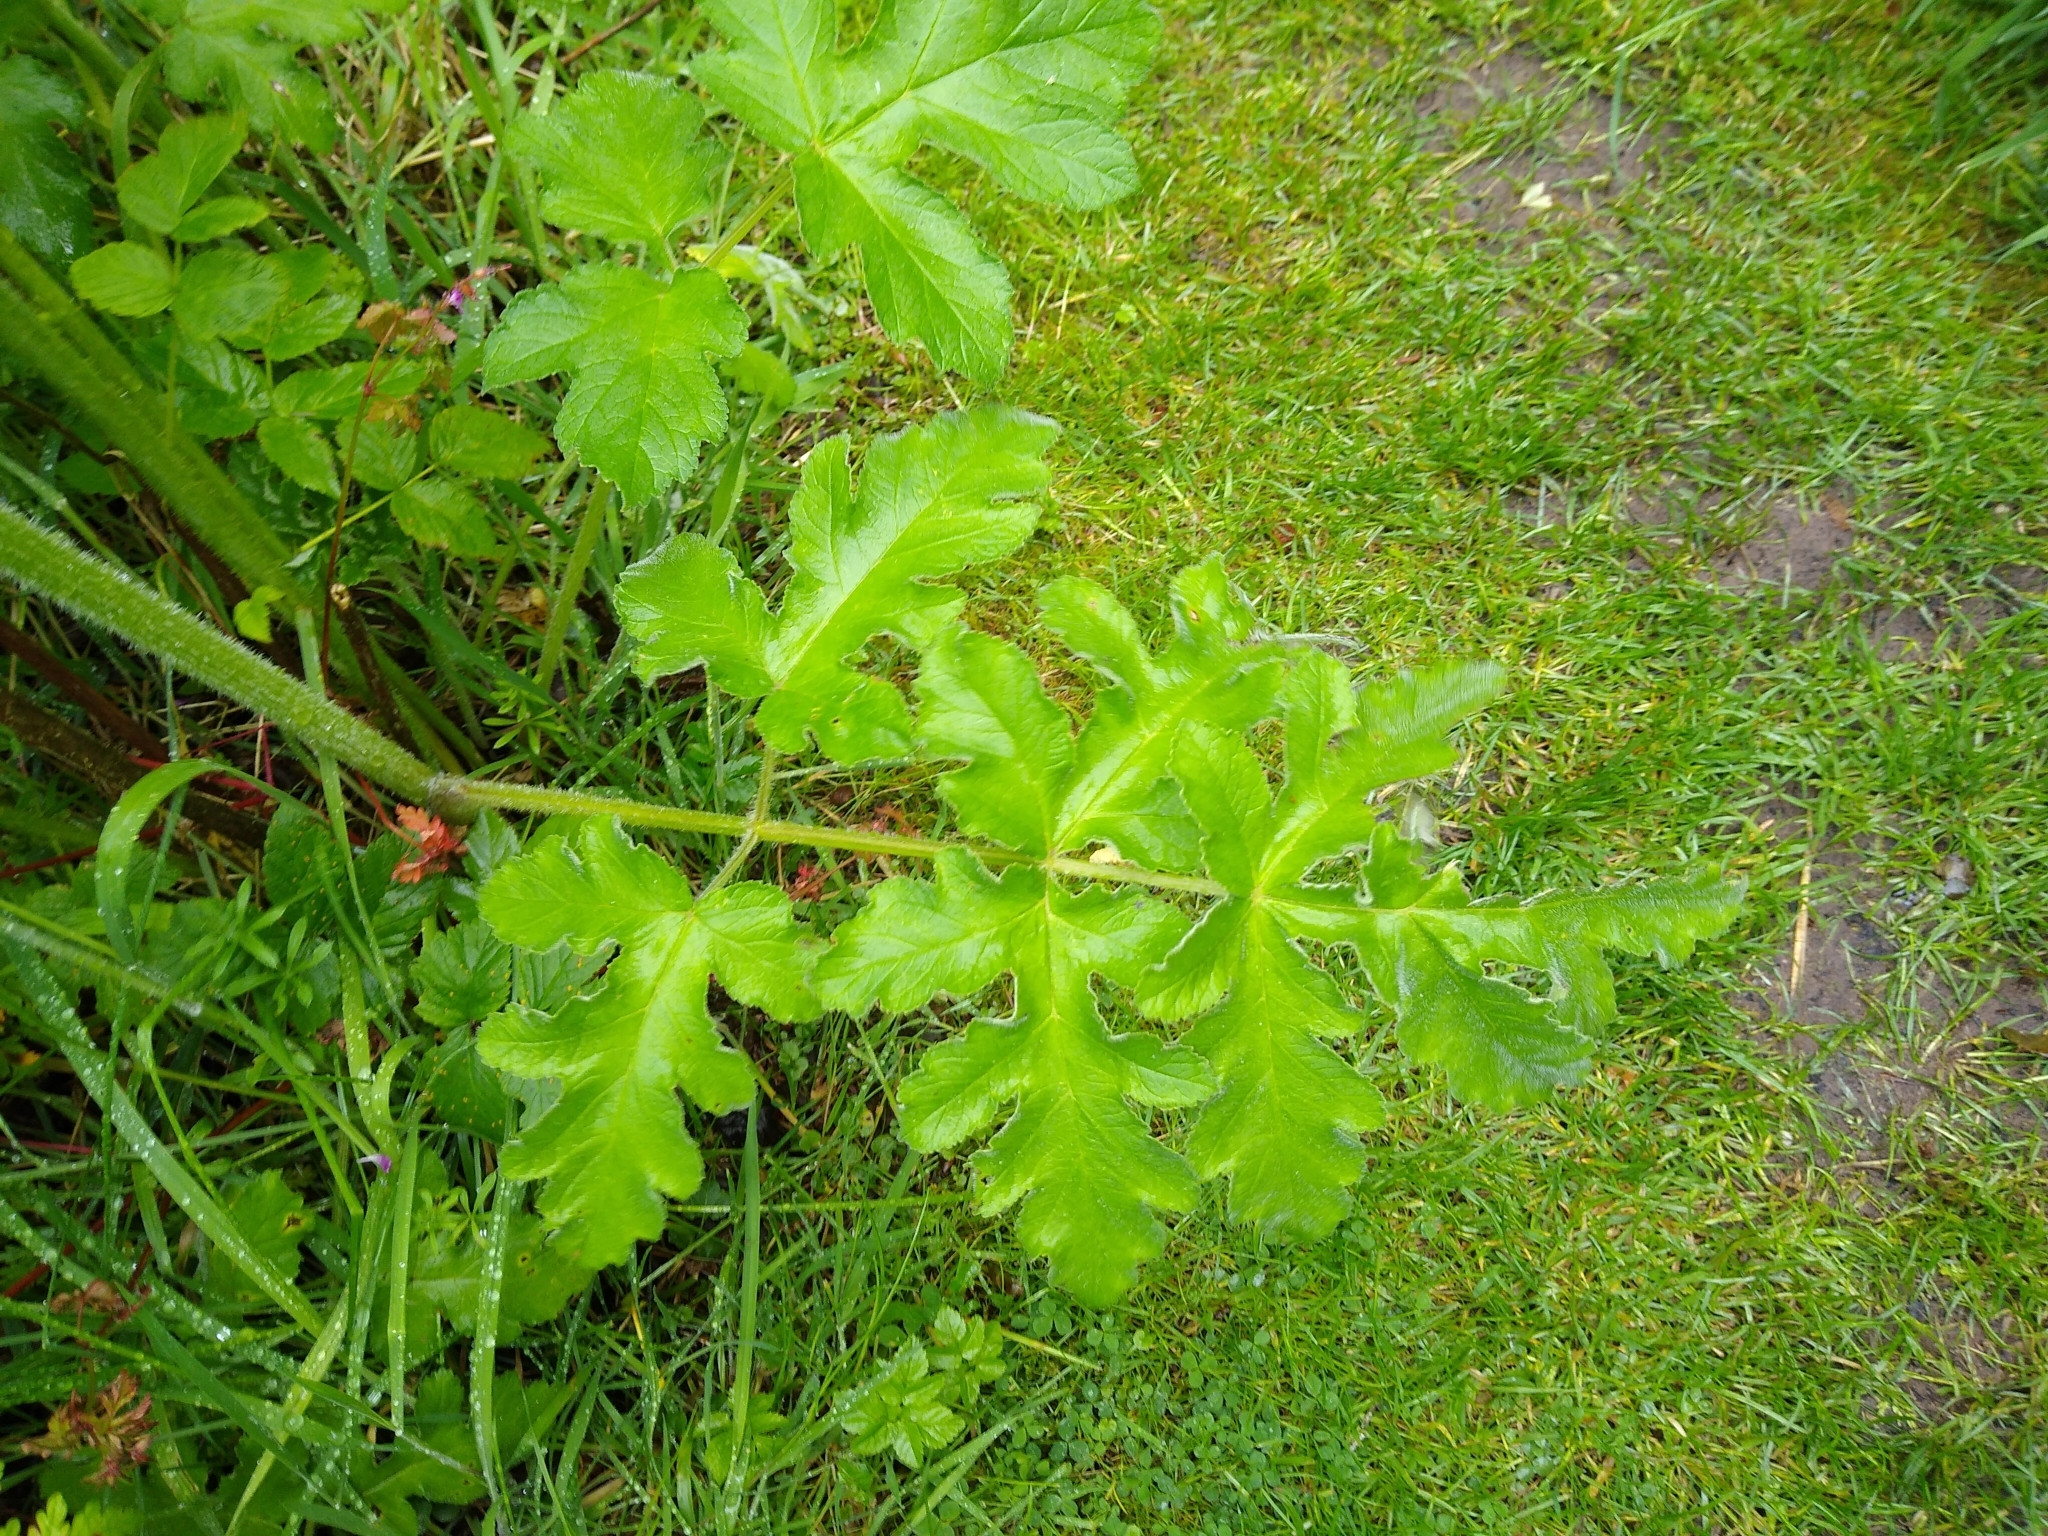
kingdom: Plantae
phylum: Tracheophyta
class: Magnoliopsida
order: Apiales
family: Apiaceae
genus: Heracleum
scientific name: Heracleum sphondylium
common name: Hogweed
